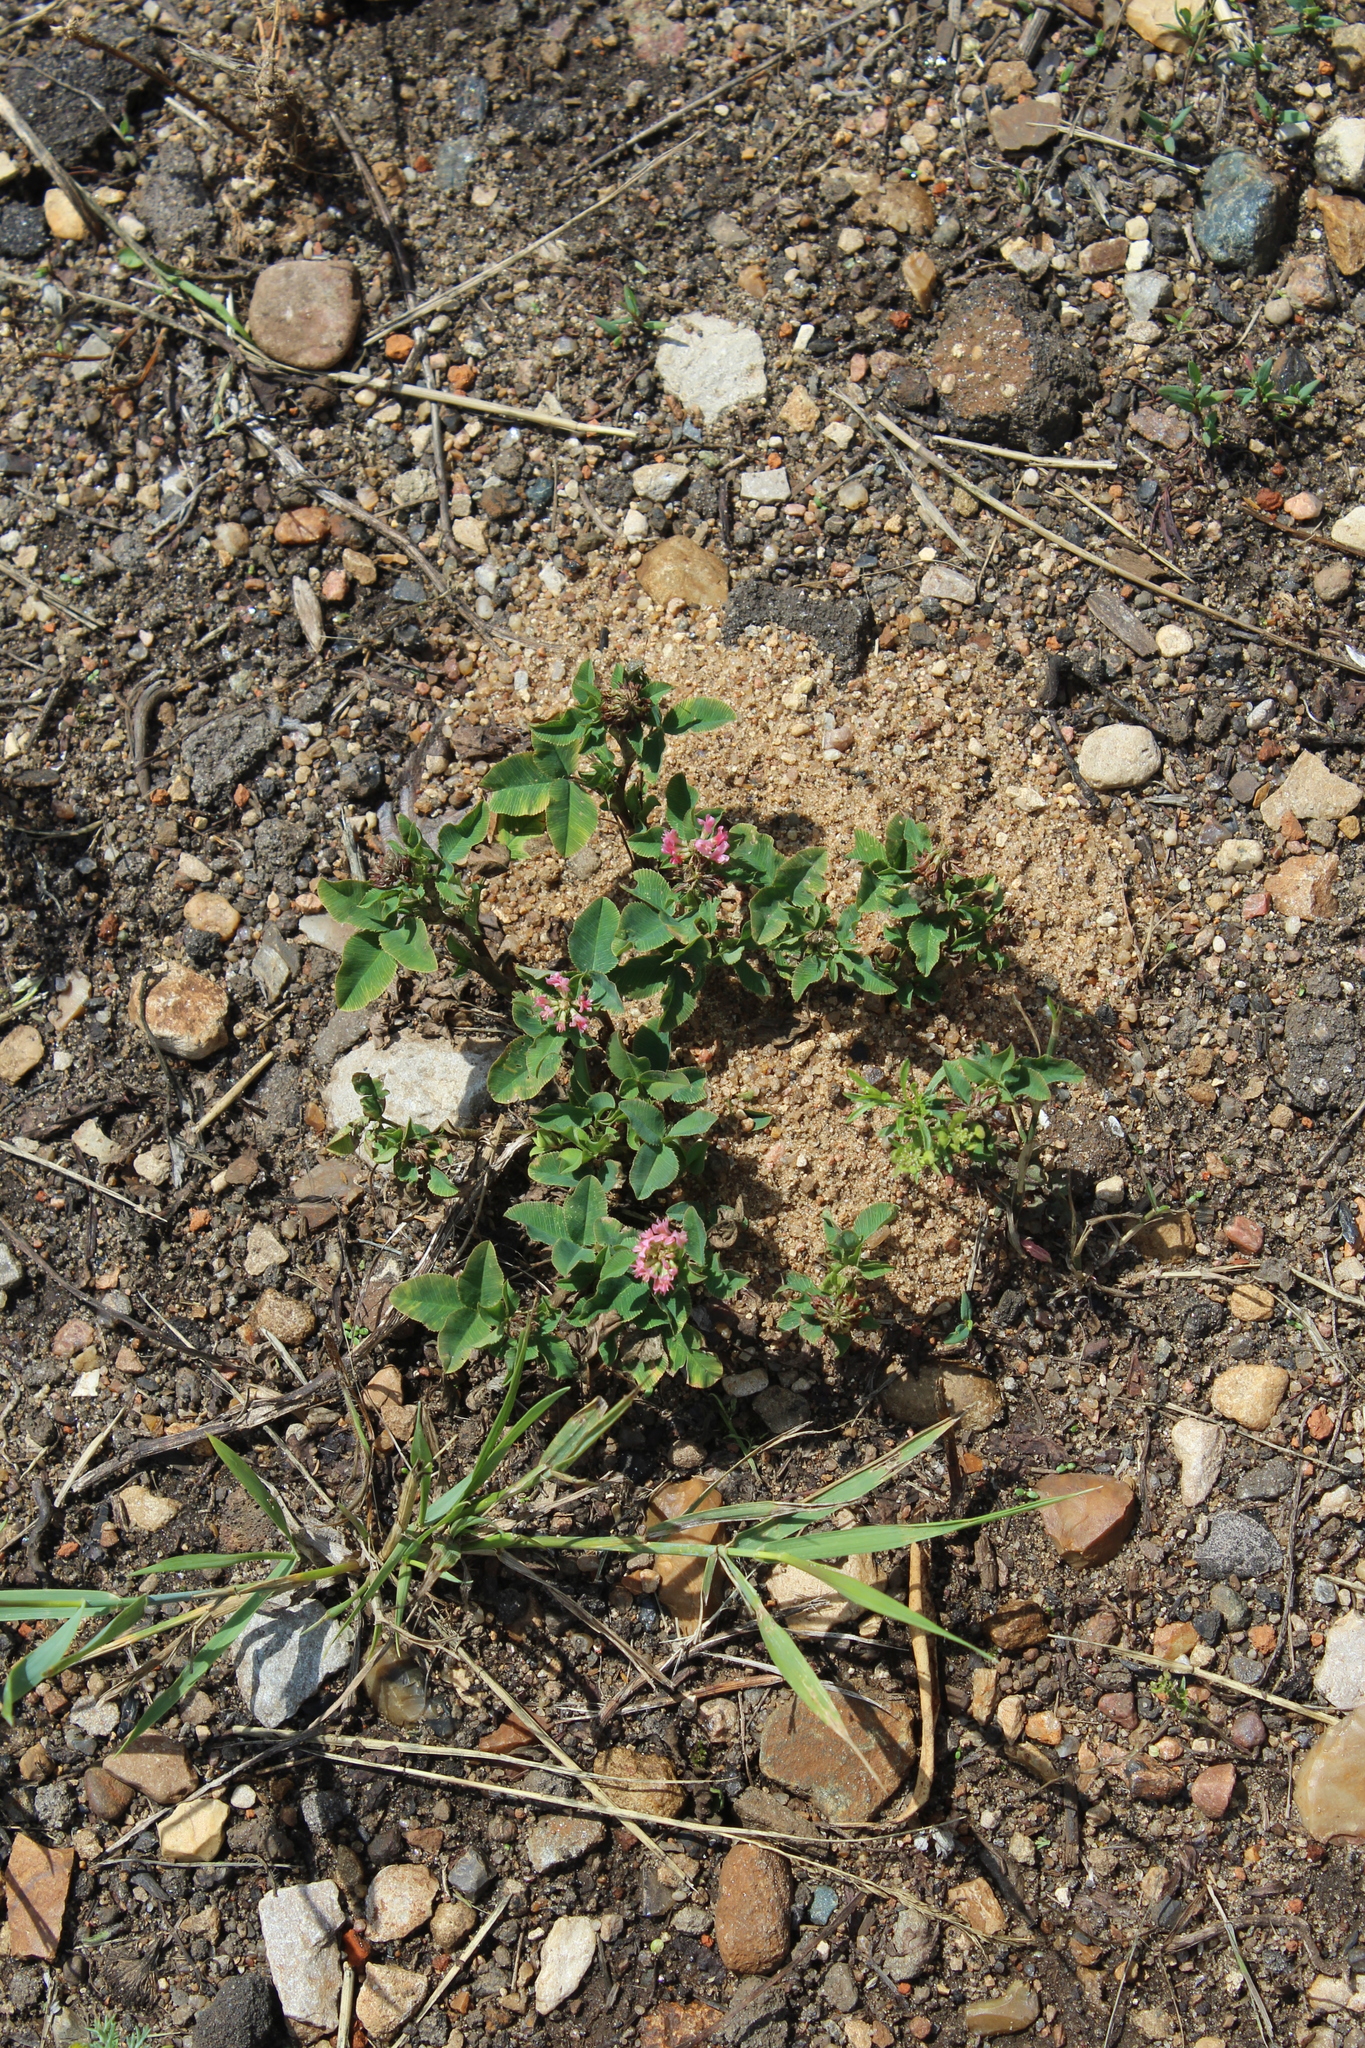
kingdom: Plantae
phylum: Tracheophyta
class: Magnoliopsida
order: Fabales
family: Fabaceae
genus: Trifolium
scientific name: Trifolium hybridum
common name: Alsike clover
